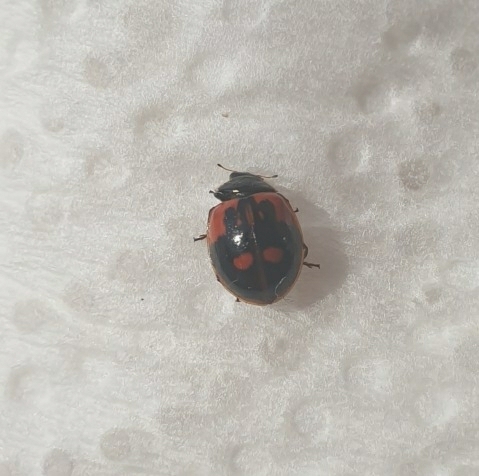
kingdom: Animalia
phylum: Arthropoda
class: Insecta
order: Coleoptera
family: Coccinellidae
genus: Adalia
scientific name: Adalia bipunctata
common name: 2-spot ladybird
